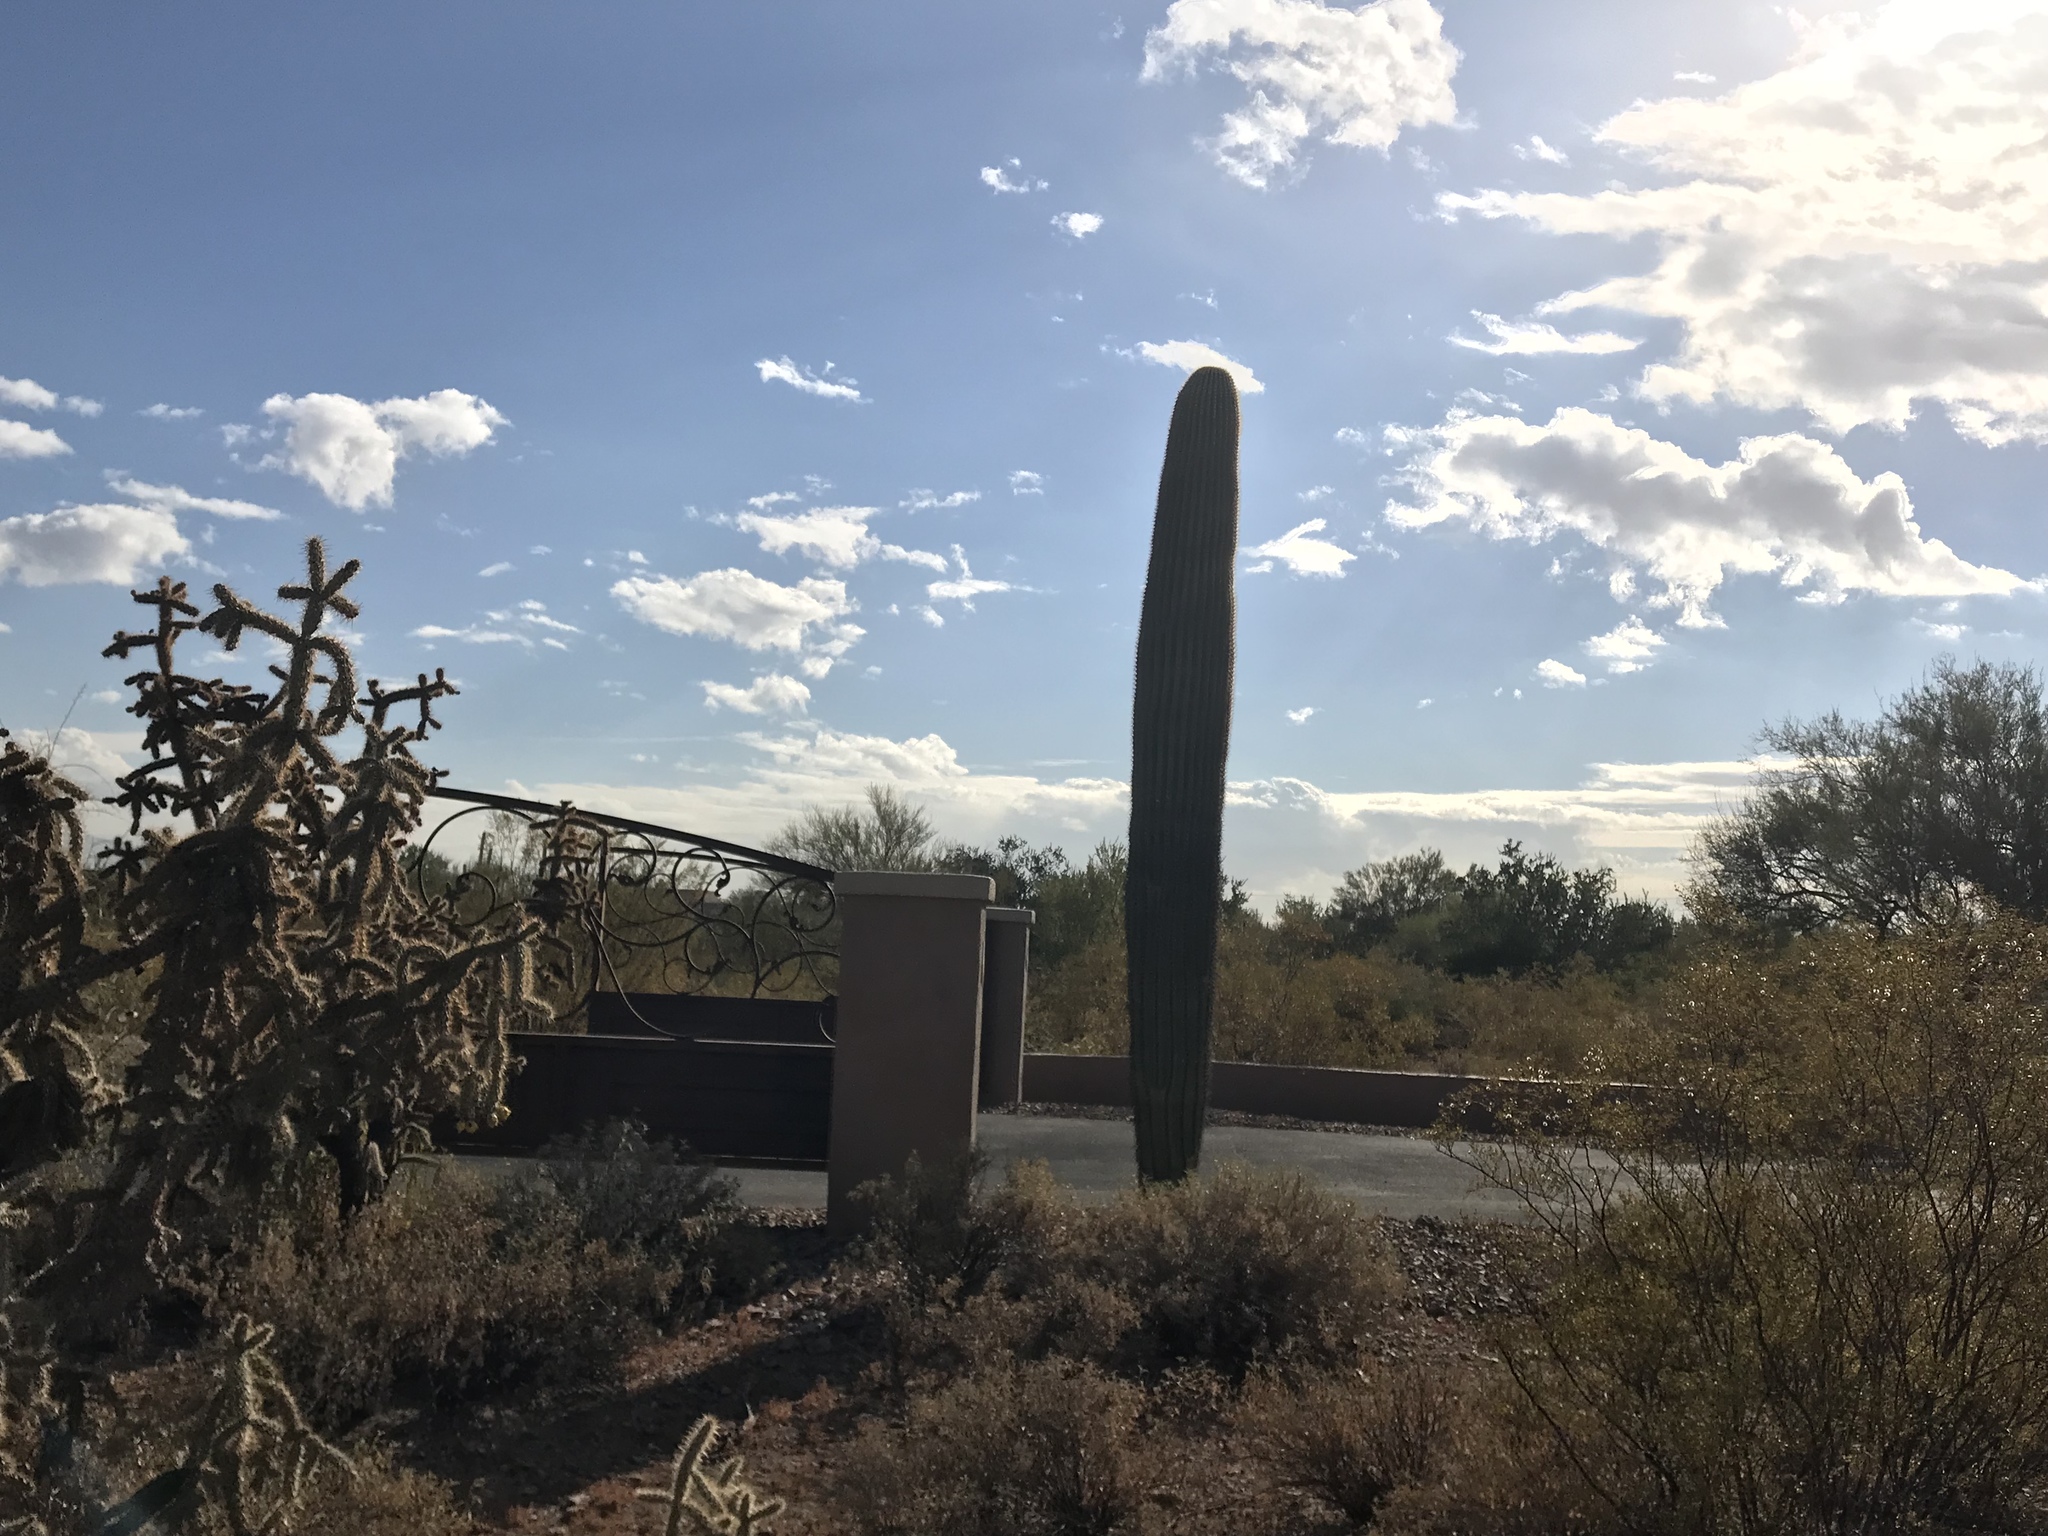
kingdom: Plantae
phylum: Tracheophyta
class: Magnoliopsida
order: Caryophyllales
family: Cactaceae
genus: Carnegiea
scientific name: Carnegiea gigantea
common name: Saguaro
